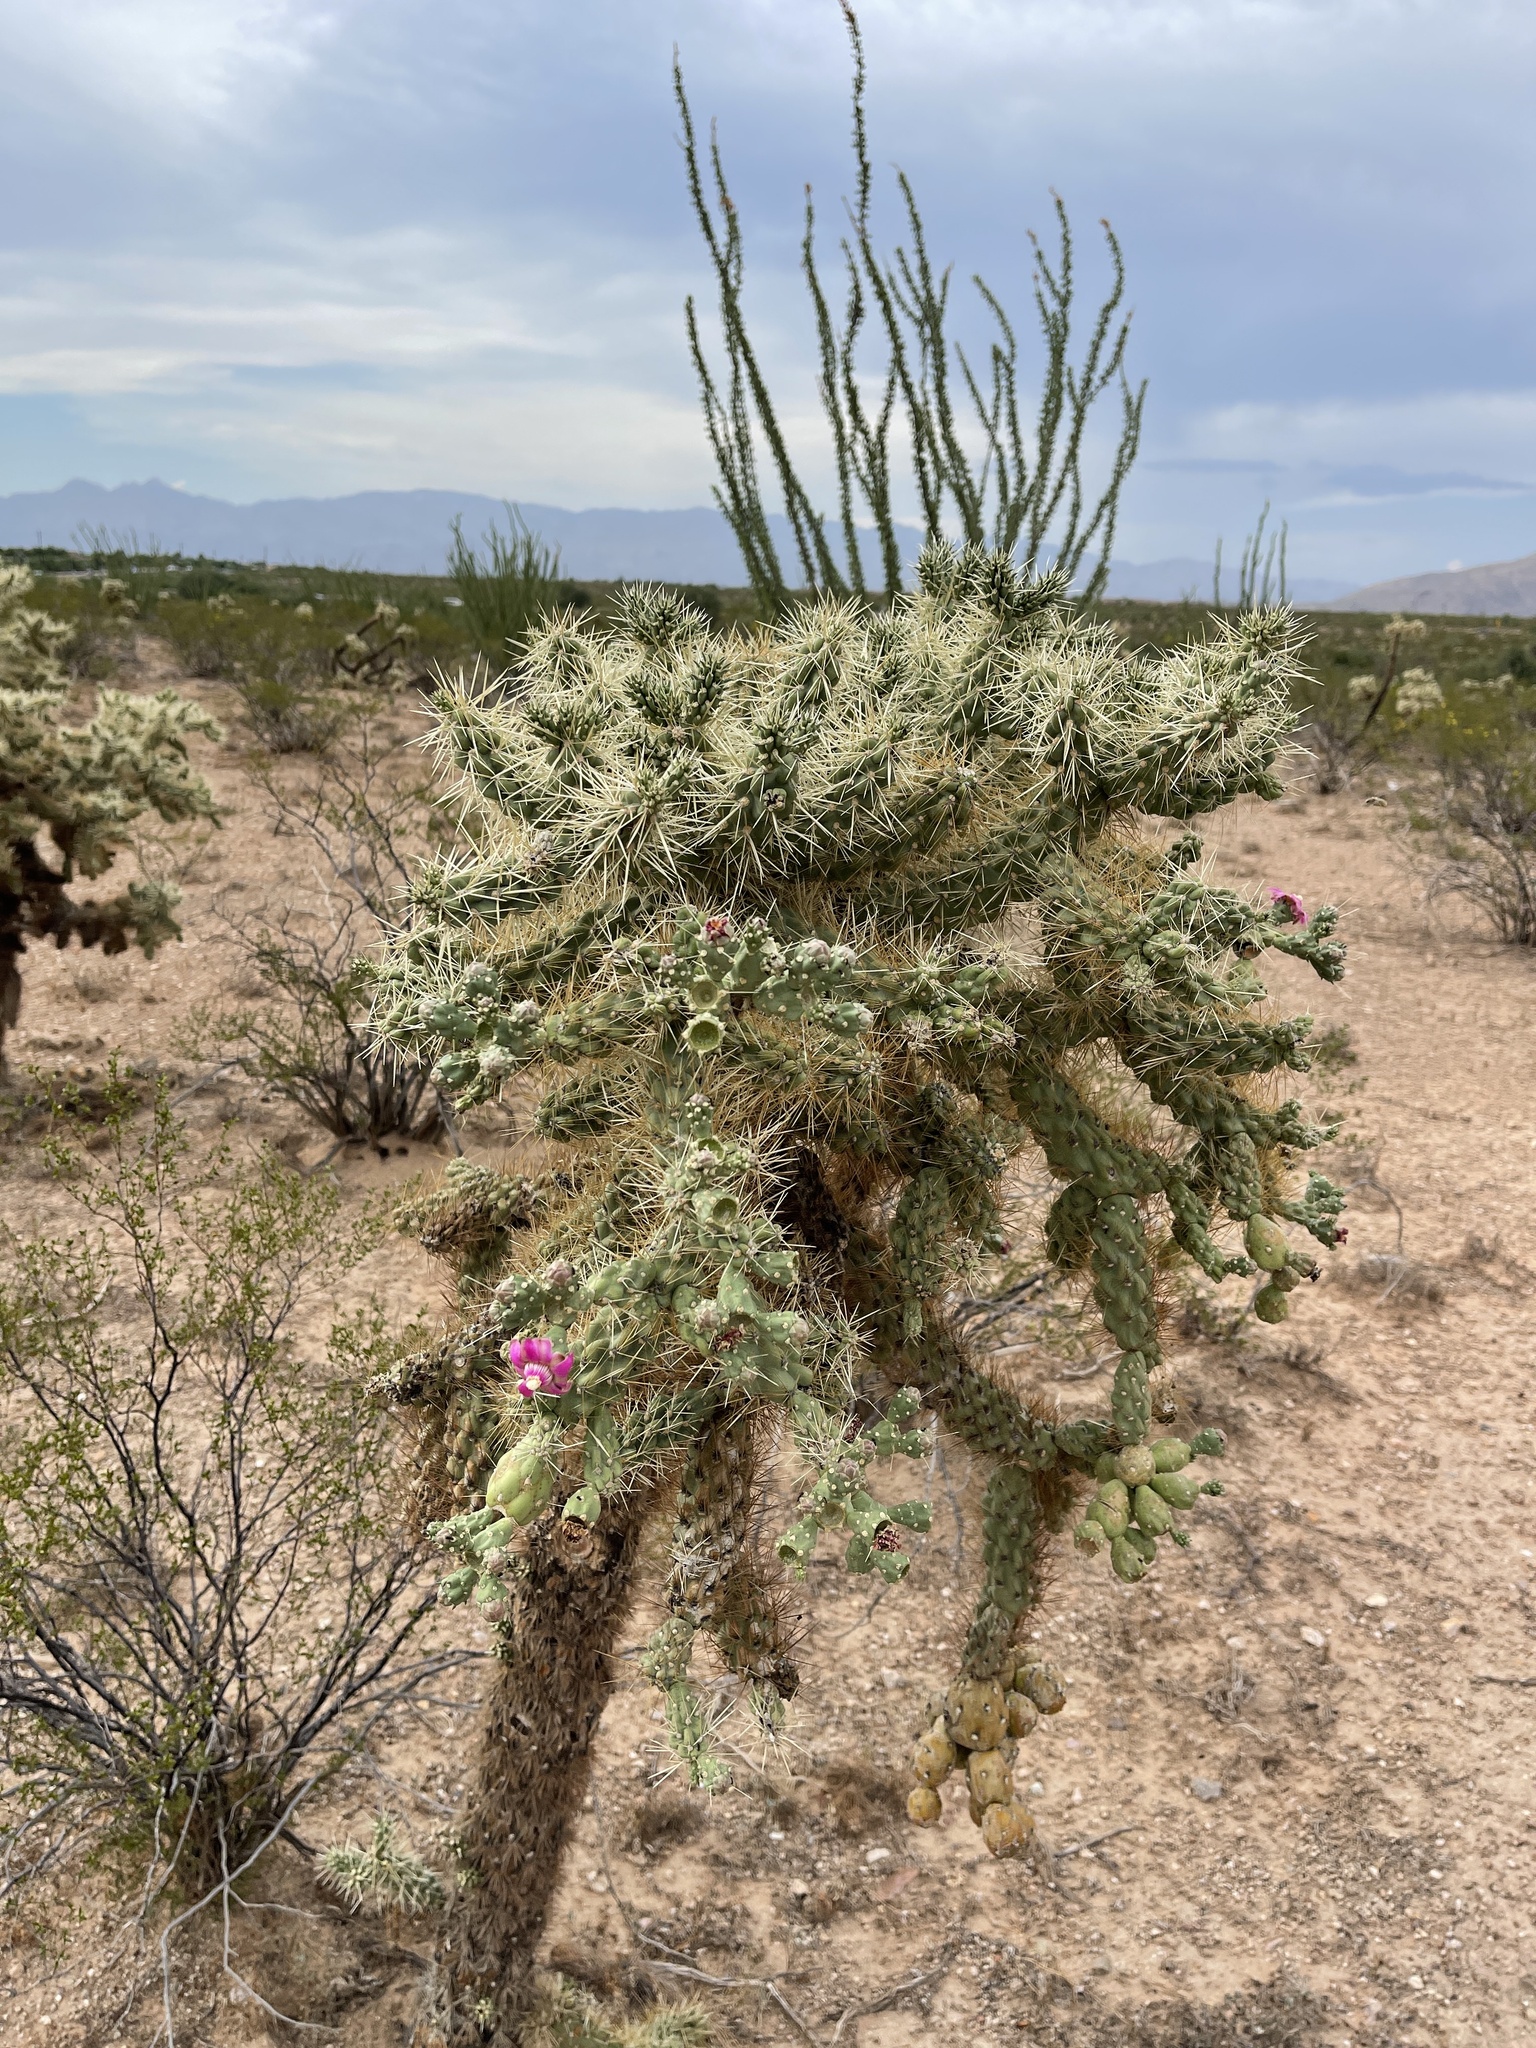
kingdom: Plantae
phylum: Tracheophyta
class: Magnoliopsida
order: Caryophyllales
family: Cactaceae
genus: Cylindropuntia
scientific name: Cylindropuntia fulgida
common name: Jumping cholla
